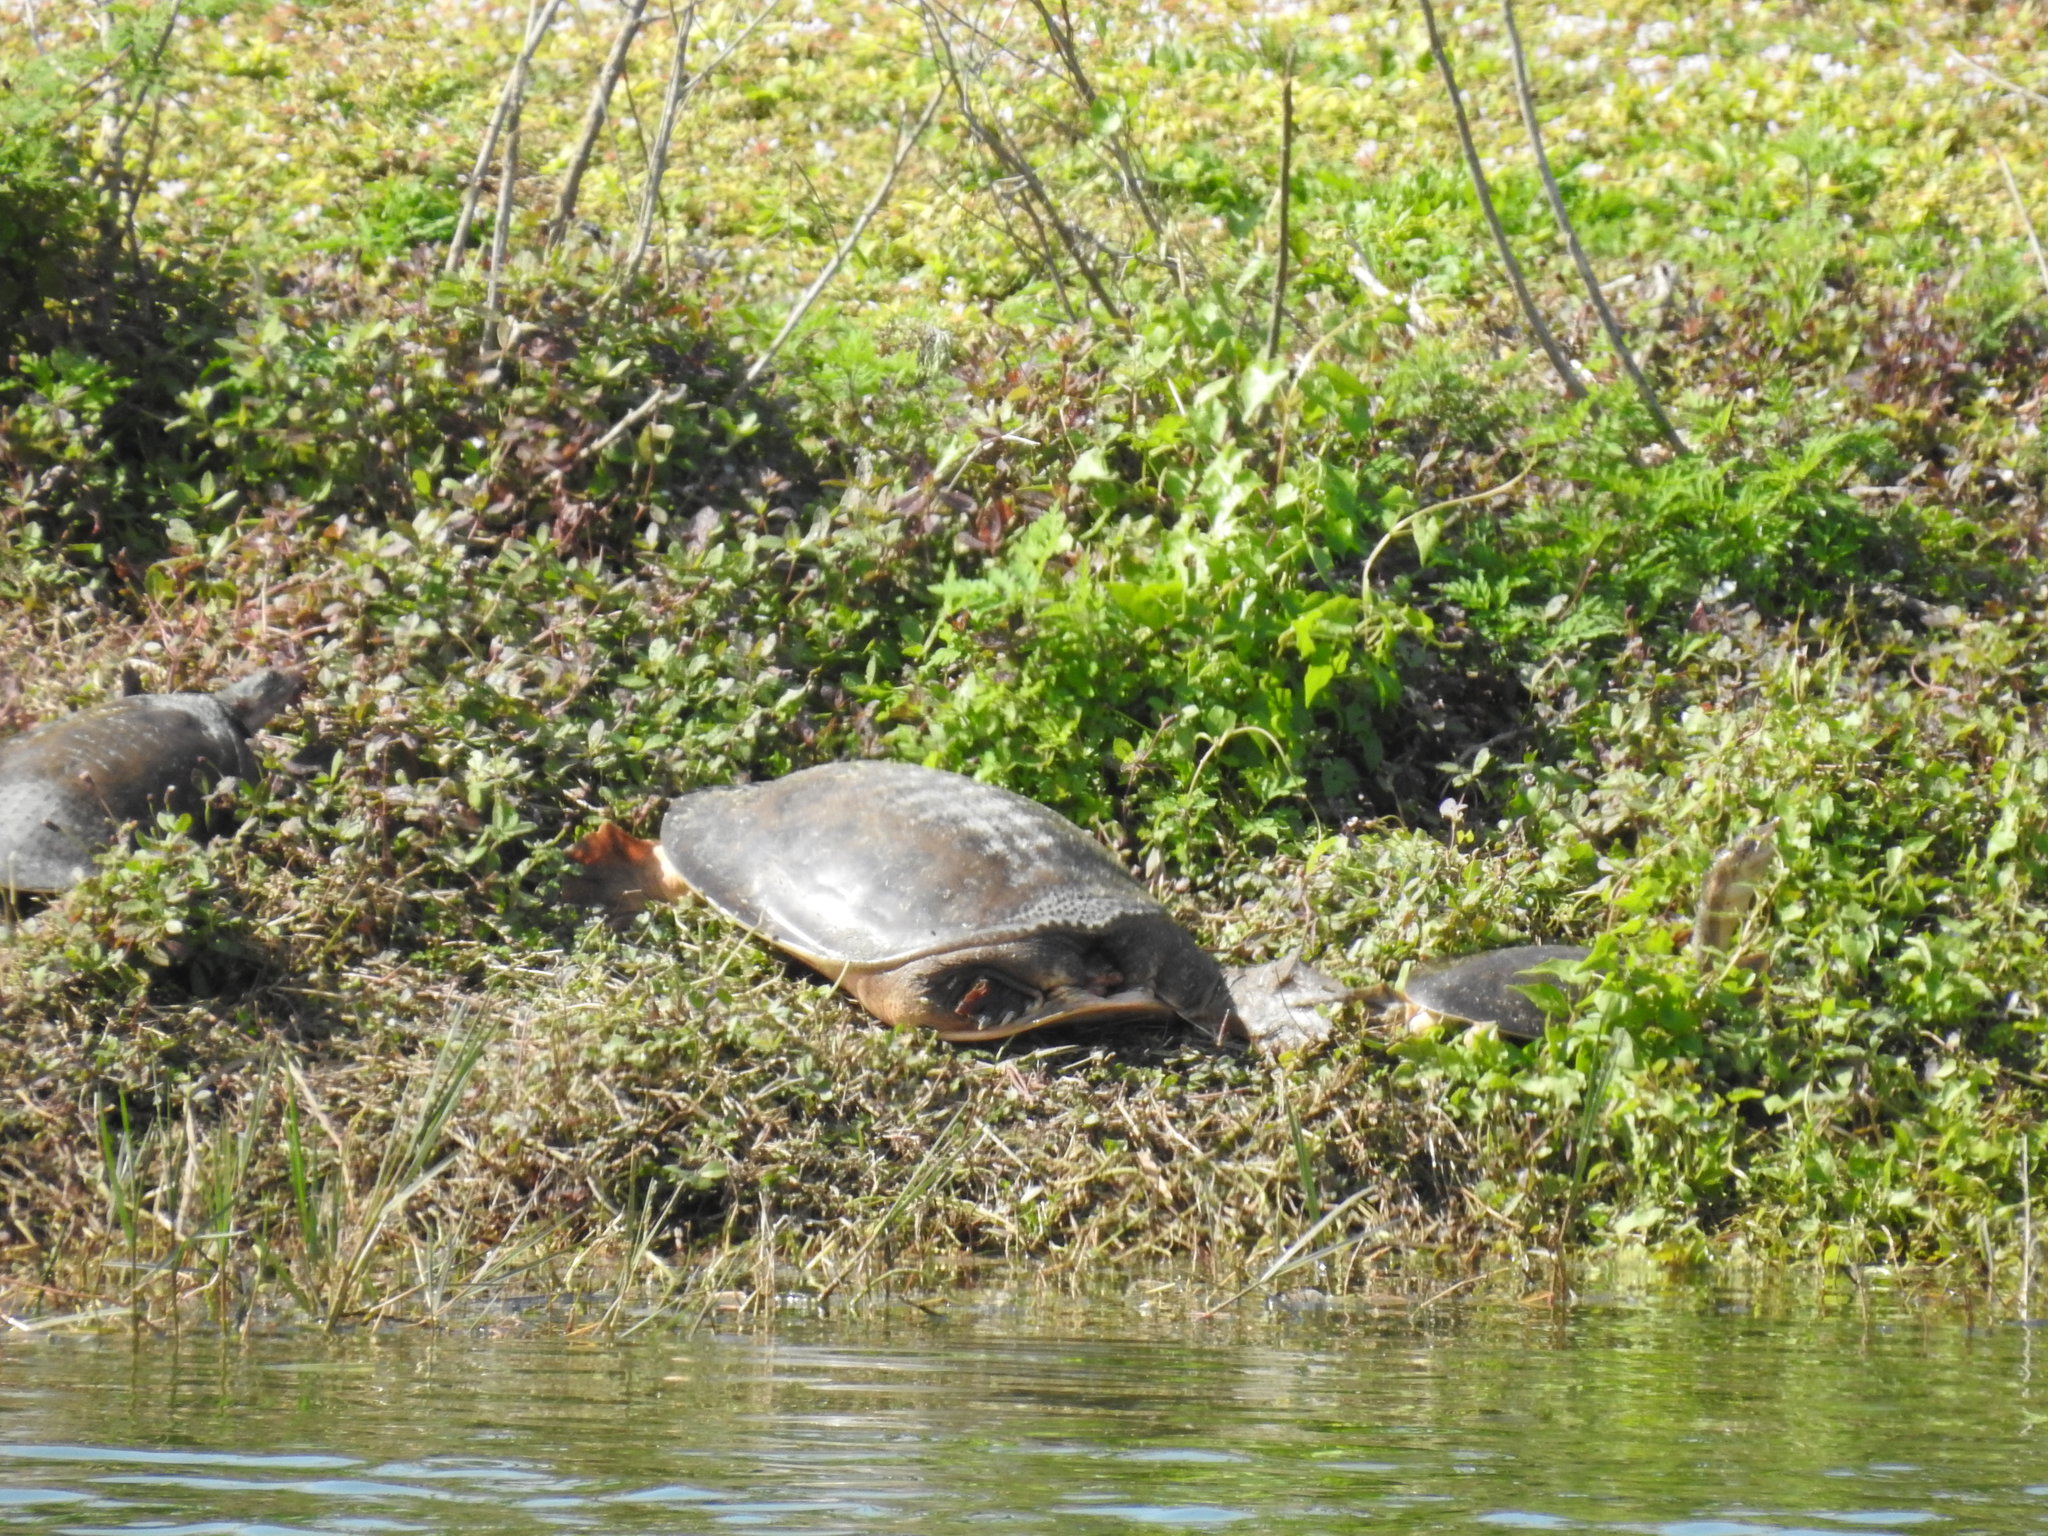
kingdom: Animalia
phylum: Chordata
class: Testudines
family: Trionychidae
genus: Apalone
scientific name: Apalone ferox
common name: Florida softshell turtle
